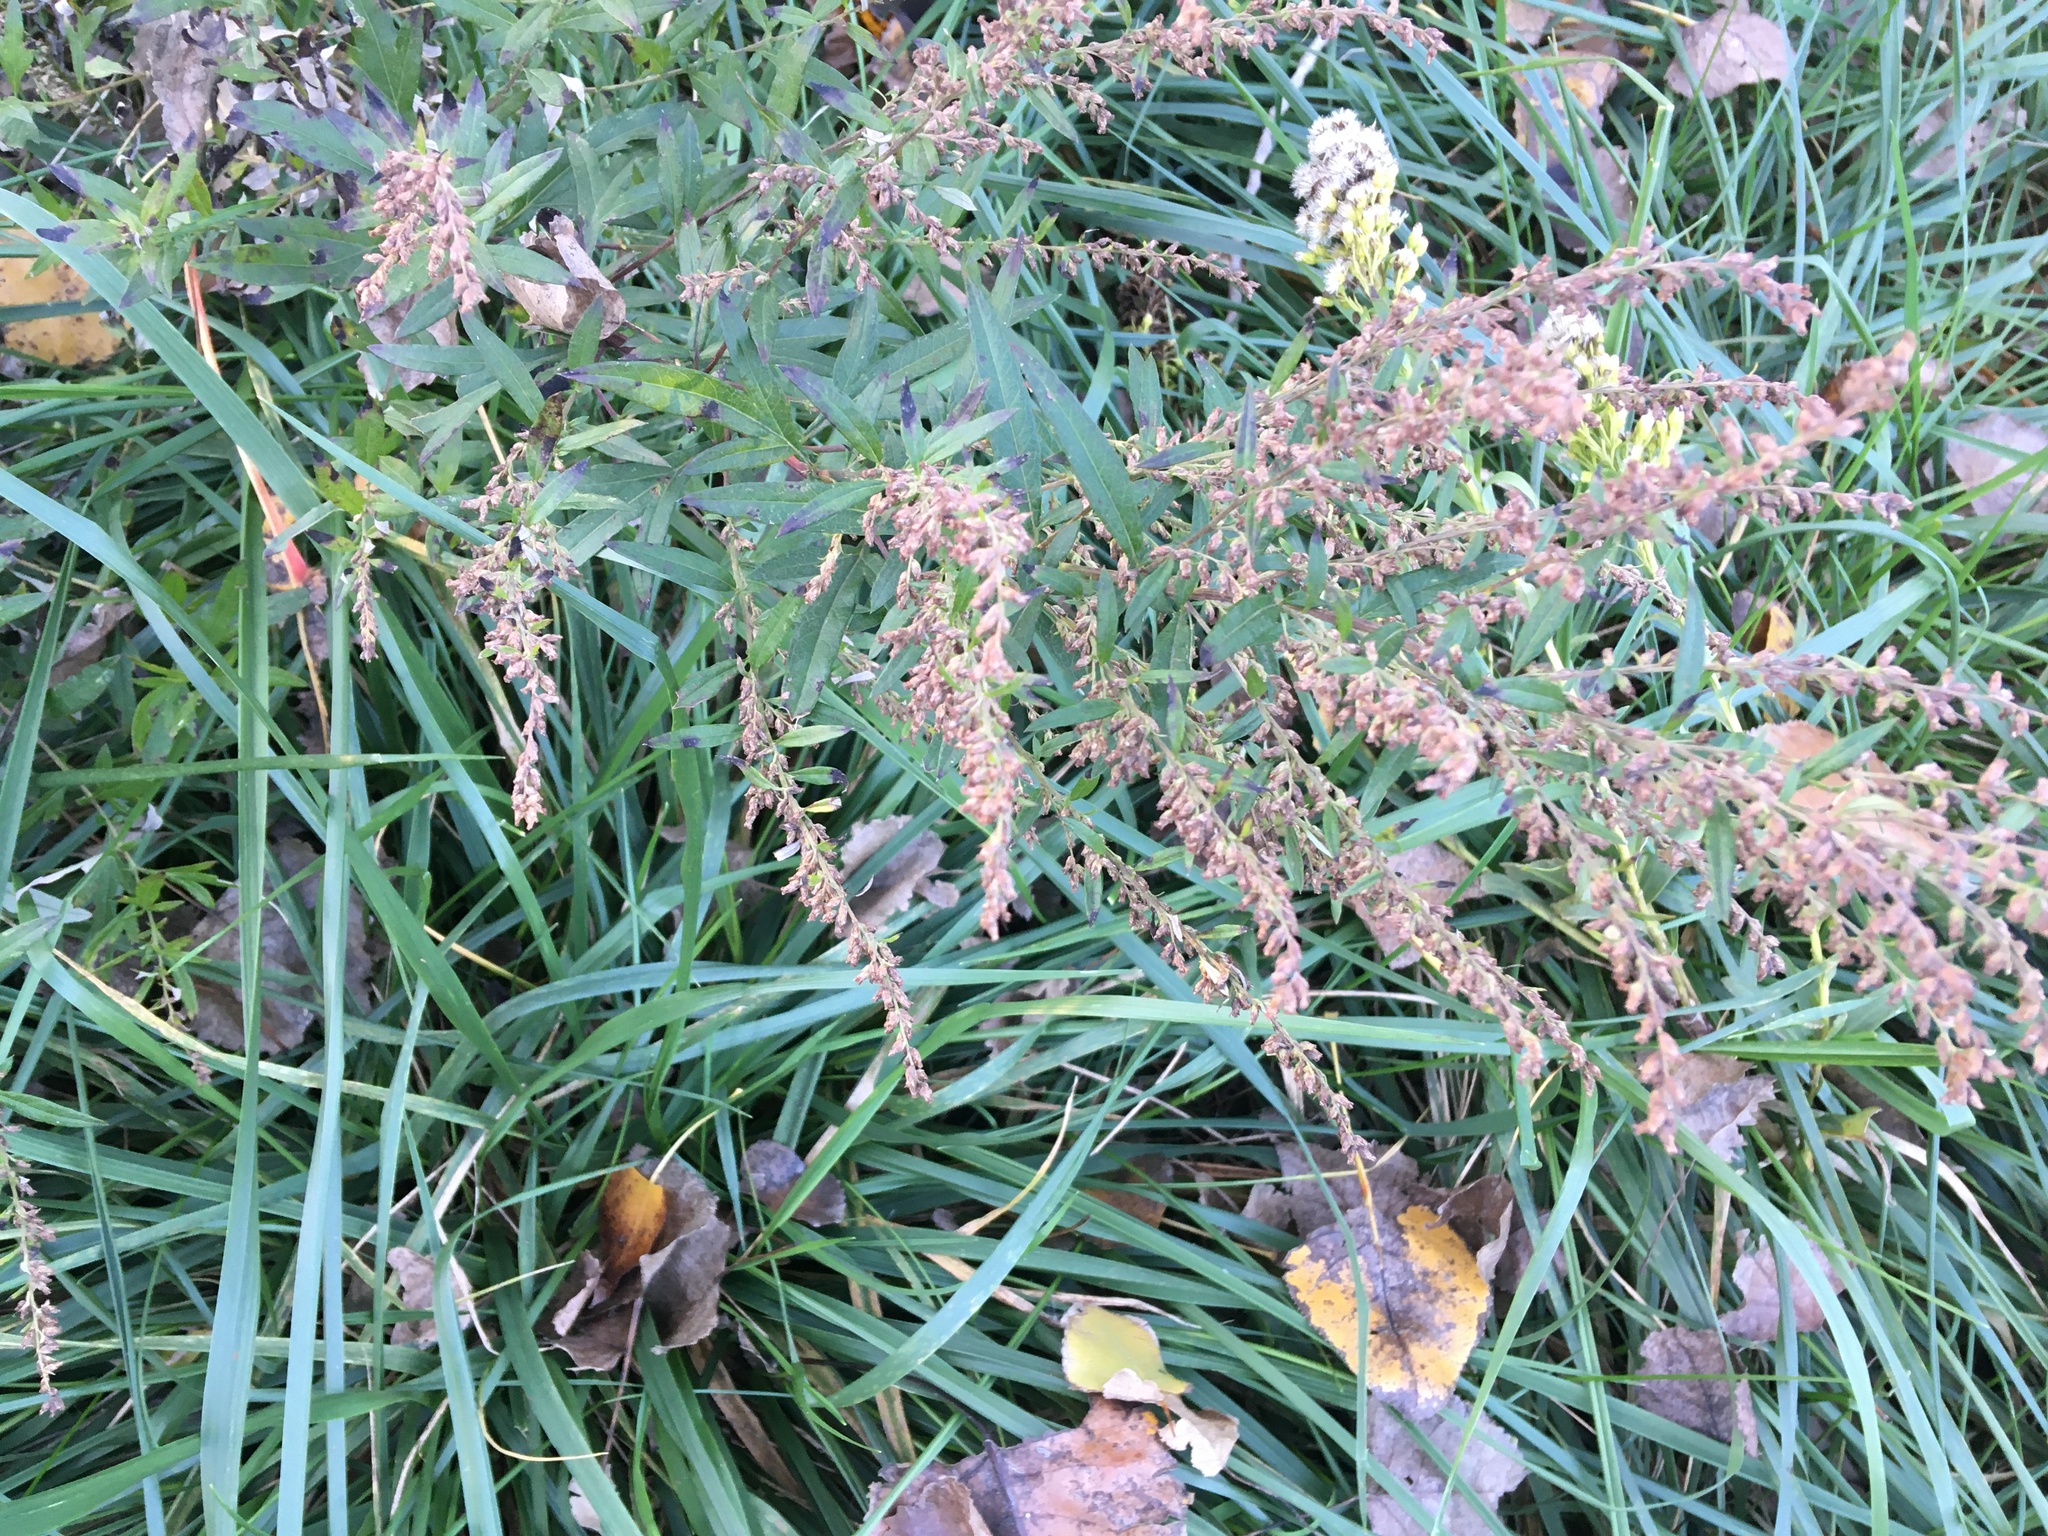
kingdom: Plantae
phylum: Tracheophyta
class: Magnoliopsida
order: Asterales
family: Asteraceae
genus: Artemisia
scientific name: Artemisia vulgaris
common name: Mugwort
